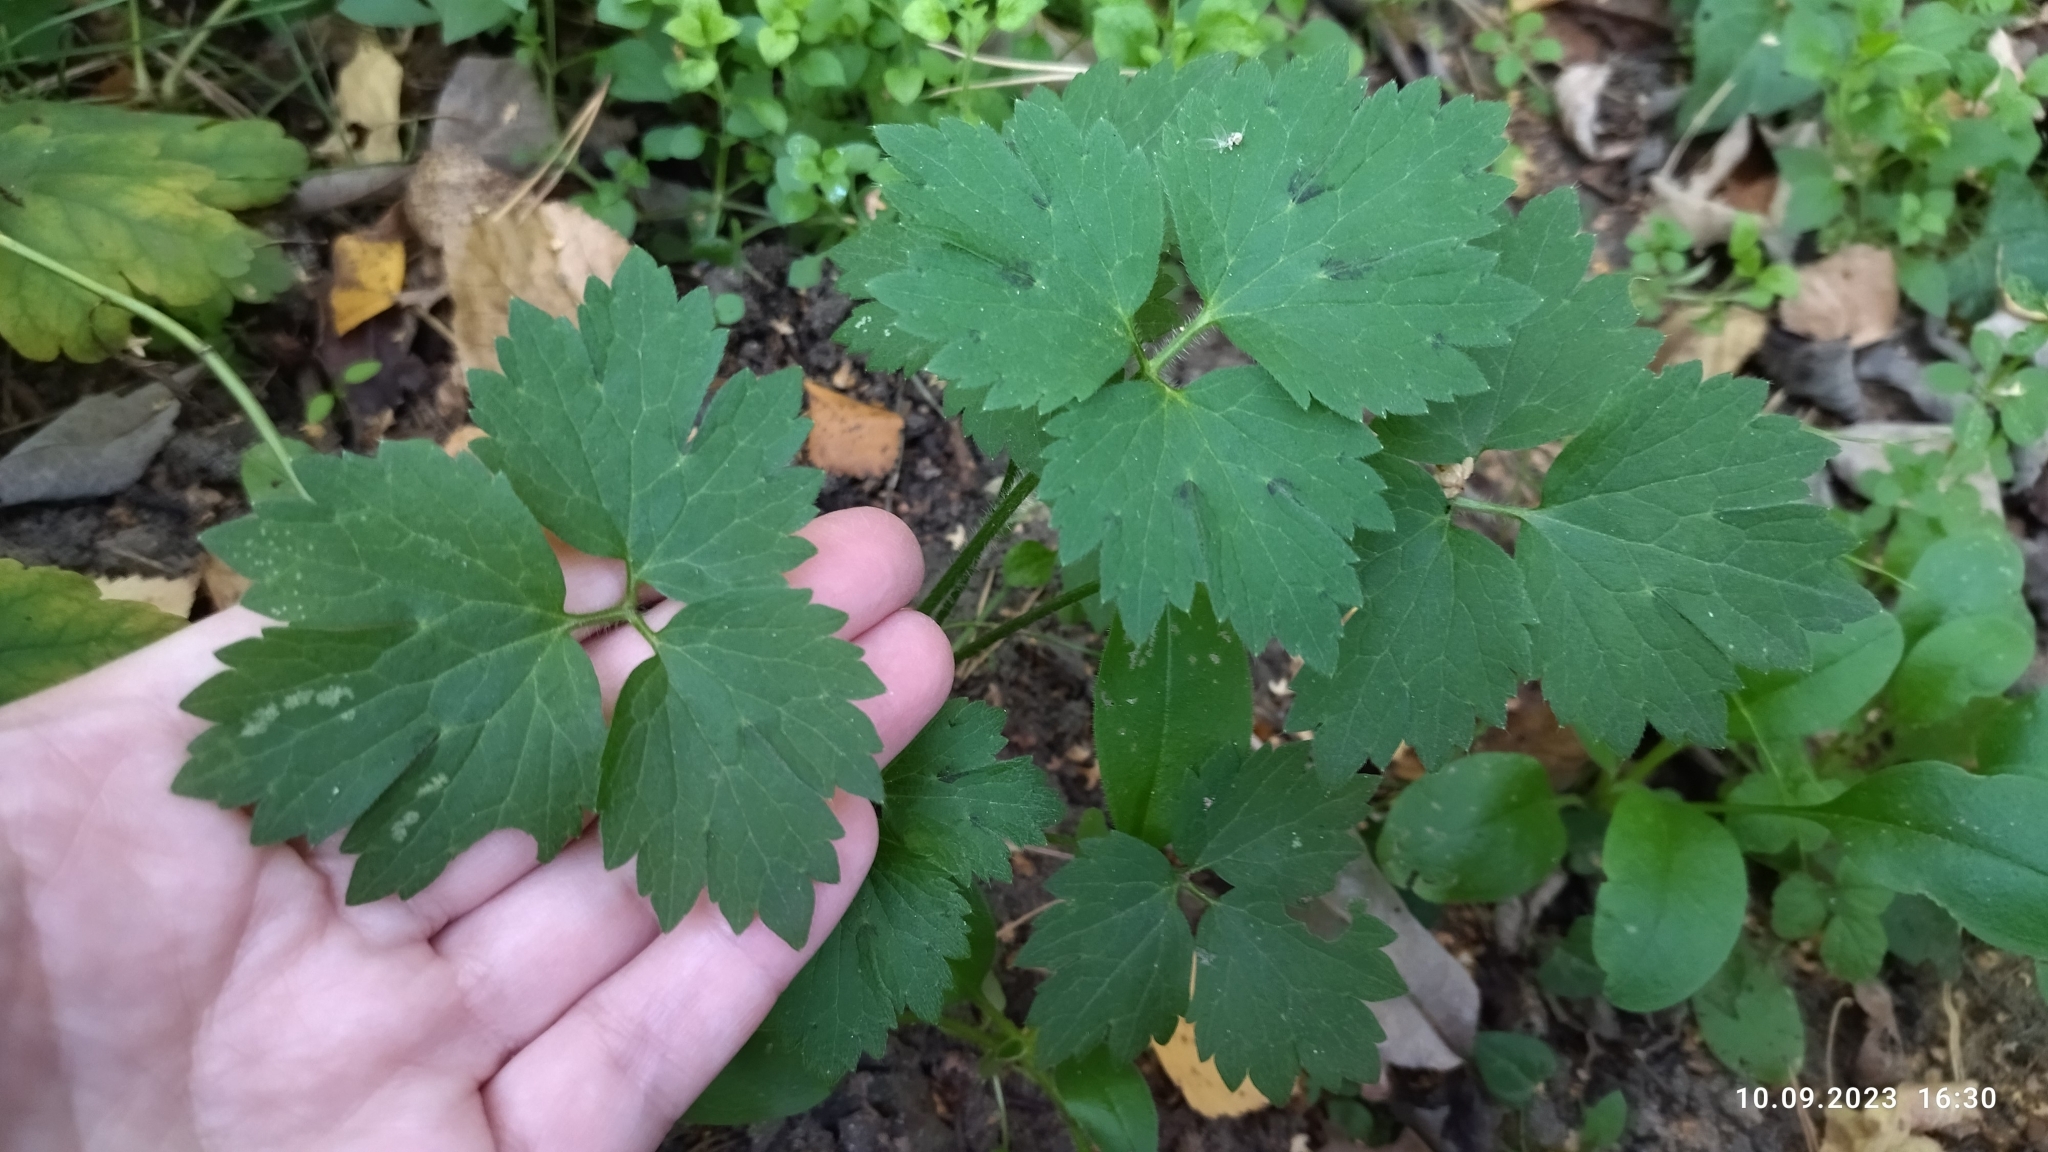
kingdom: Plantae
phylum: Tracheophyta
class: Magnoliopsida
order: Ranunculales
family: Ranunculaceae
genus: Ranunculus
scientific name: Ranunculus repens
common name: Creeping buttercup
